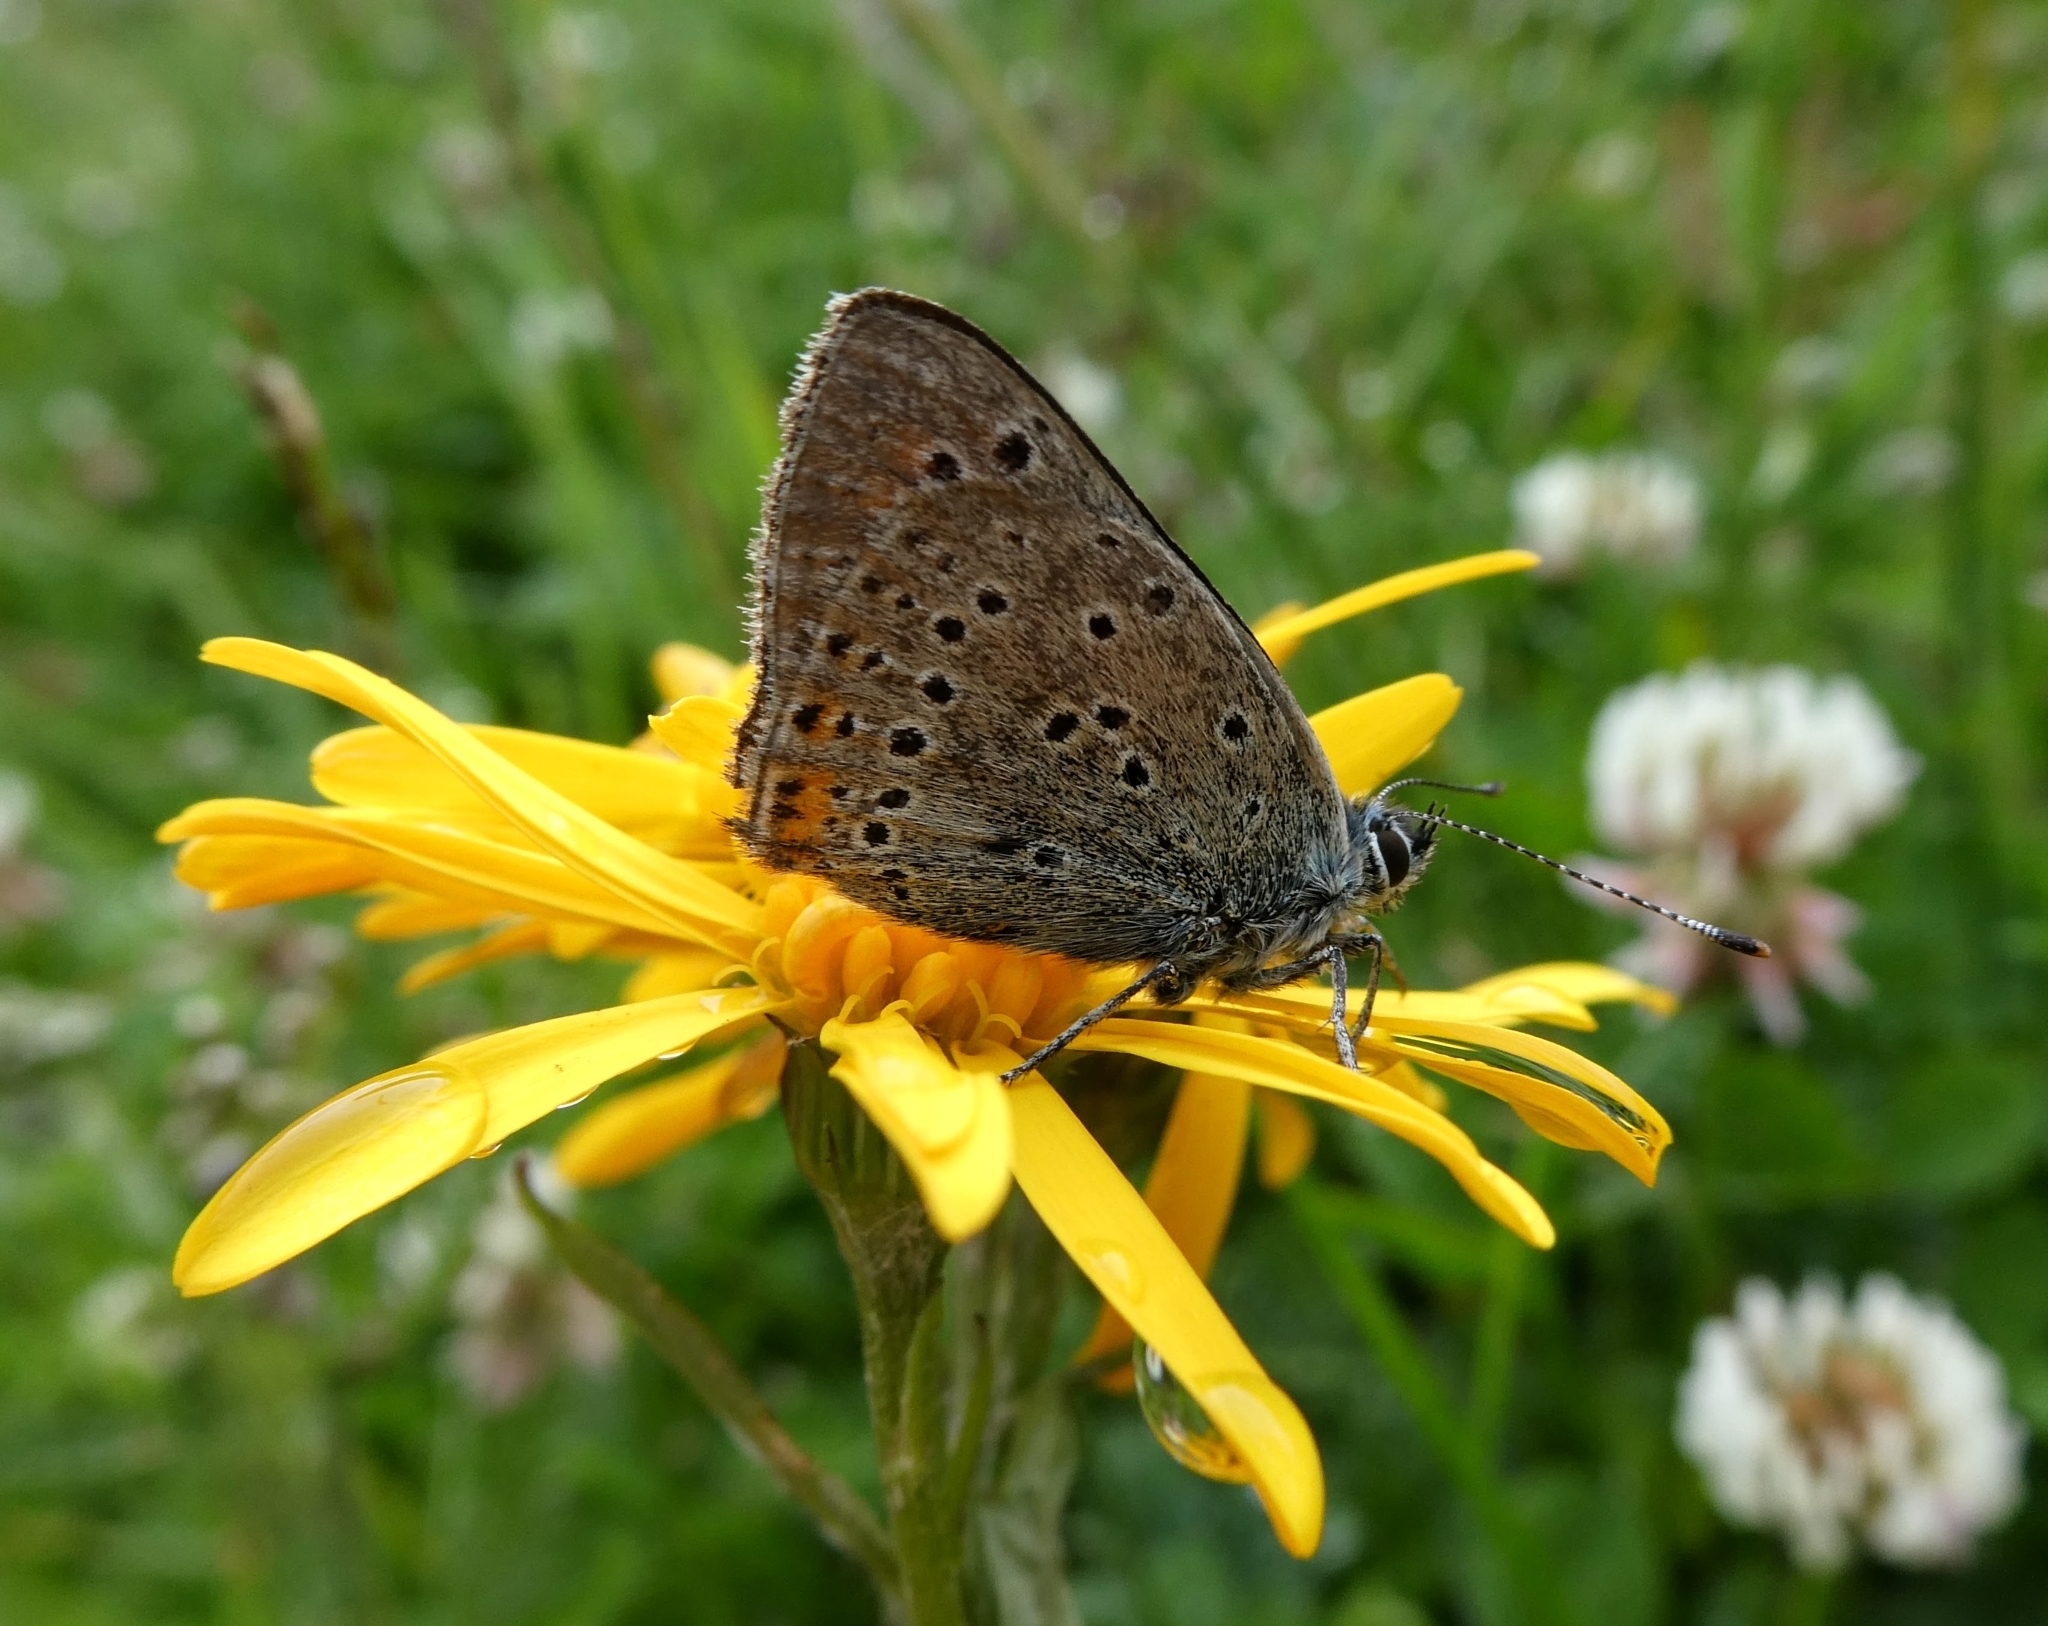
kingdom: Animalia
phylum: Arthropoda
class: Insecta
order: Lepidoptera
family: Lycaenidae
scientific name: Lycaenidae
